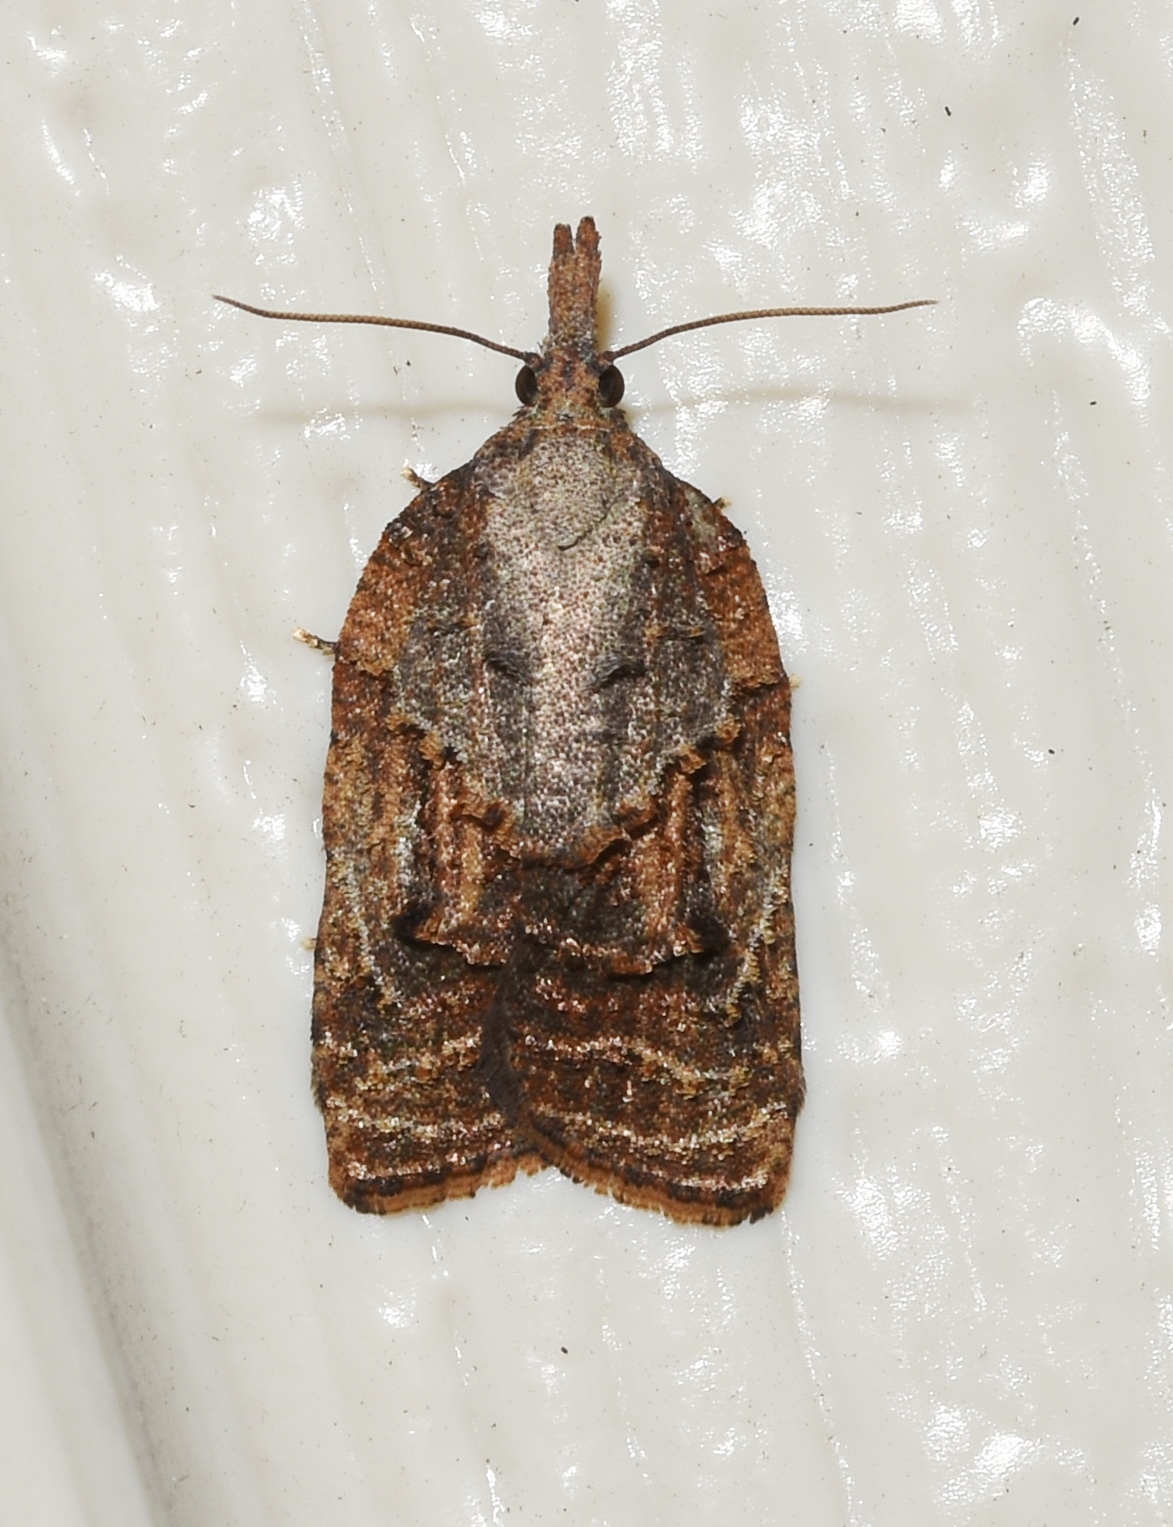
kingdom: Animalia
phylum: Arthropoda
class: Insecta
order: Lepidoptera
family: Tortricidae
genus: Platynota
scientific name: Platynota idaeusalis
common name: Tufted apple bud moth
